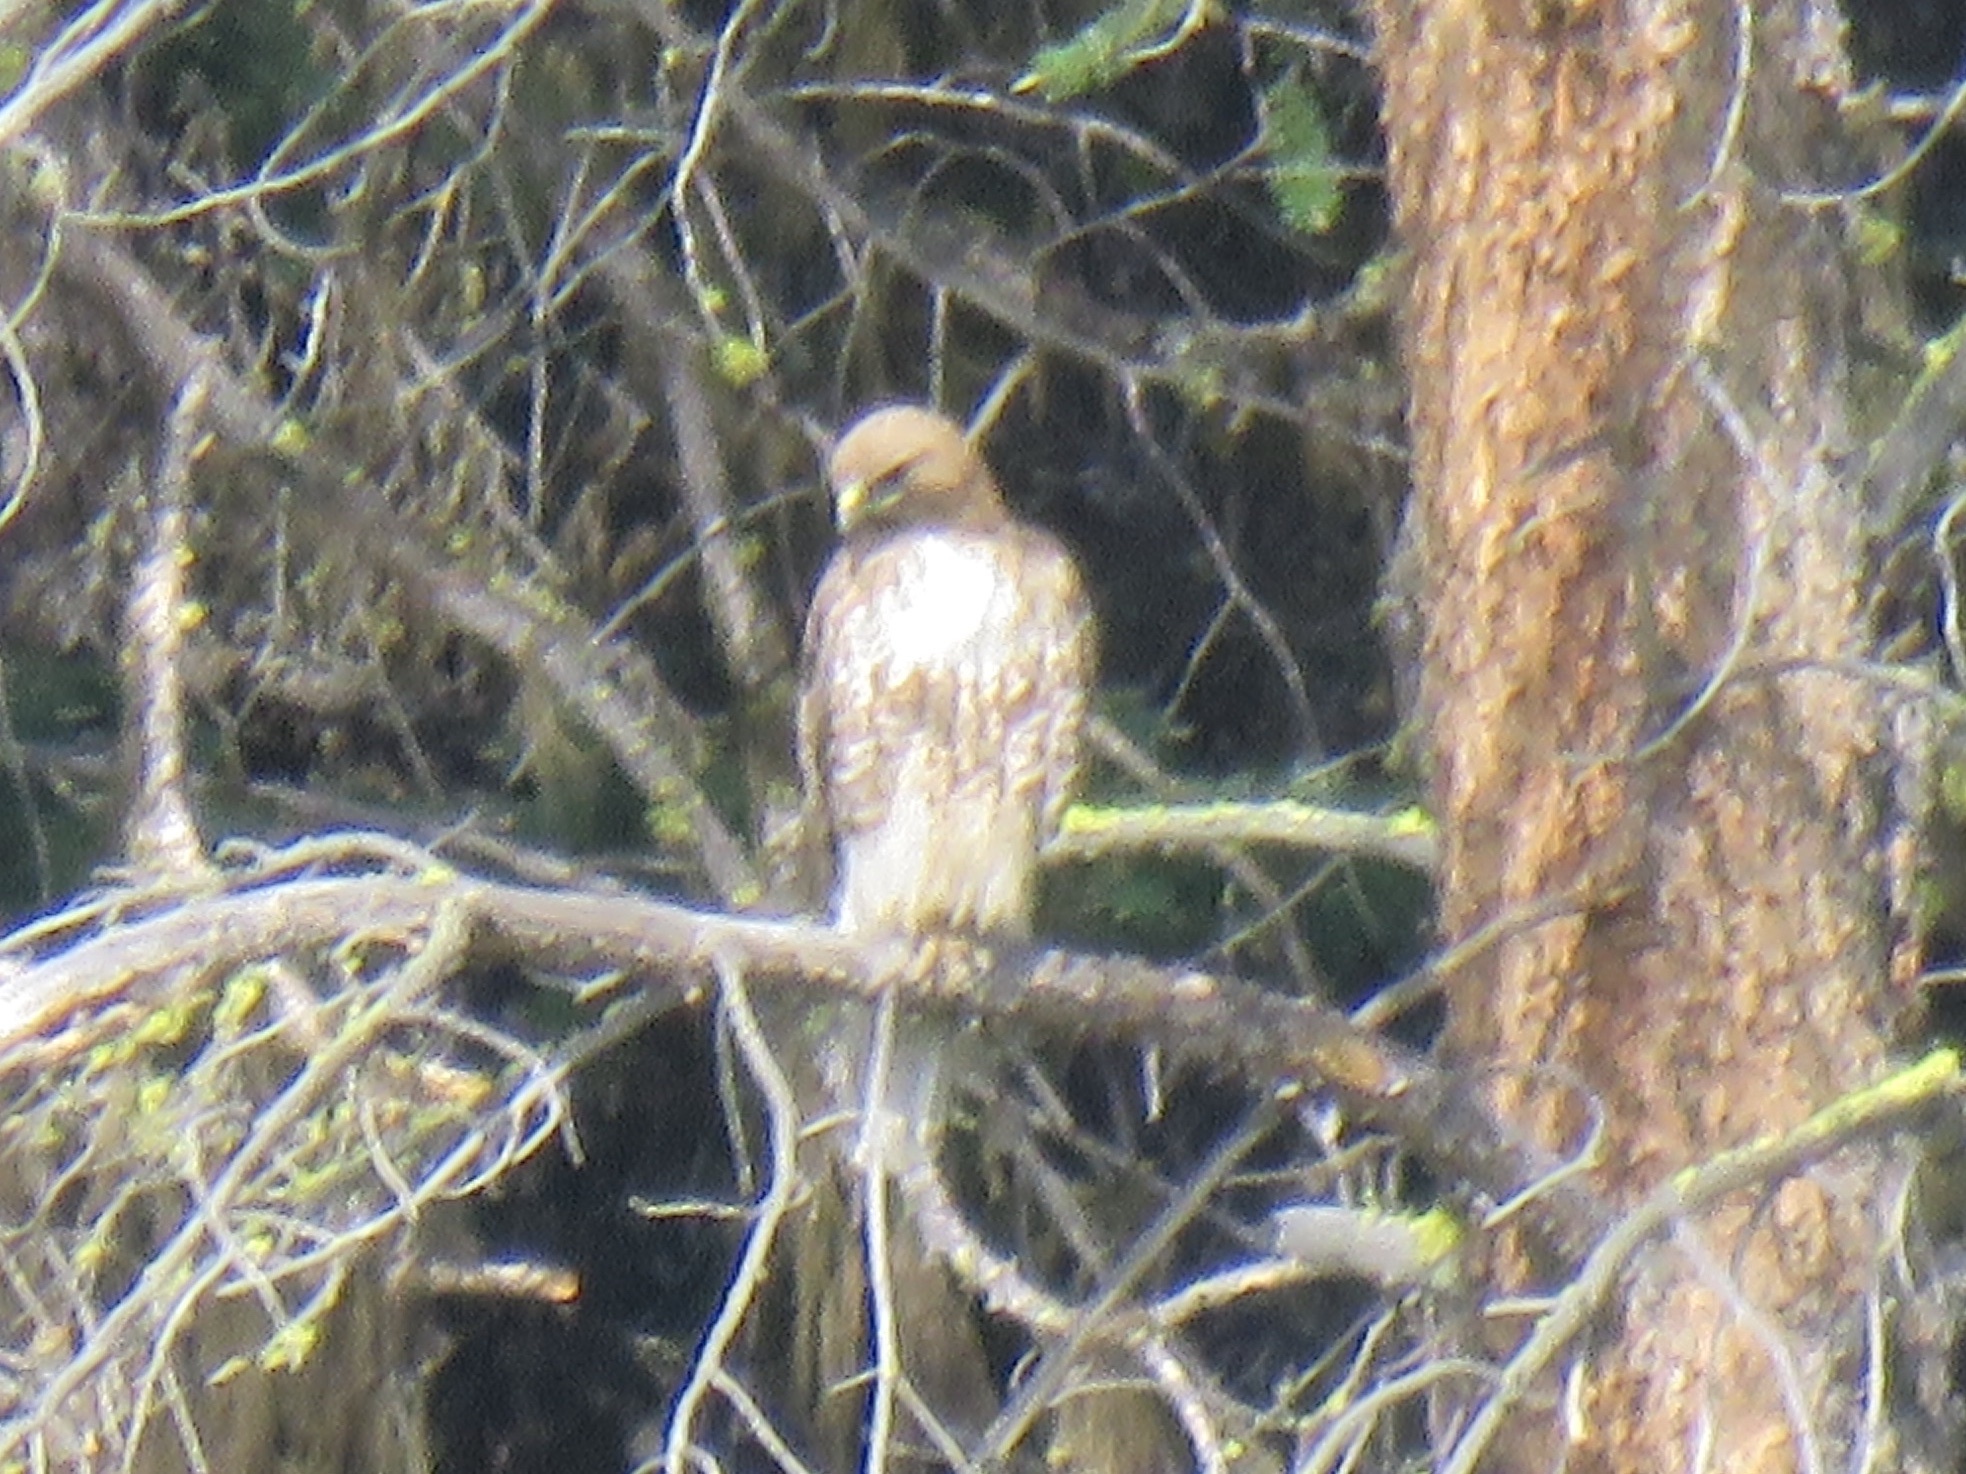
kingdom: Animalia
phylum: Chordata
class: Aves
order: Accipitriformes
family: Accipitridae
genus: Buteo
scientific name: Buteo jamaicensis
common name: Red-tailed hawk
